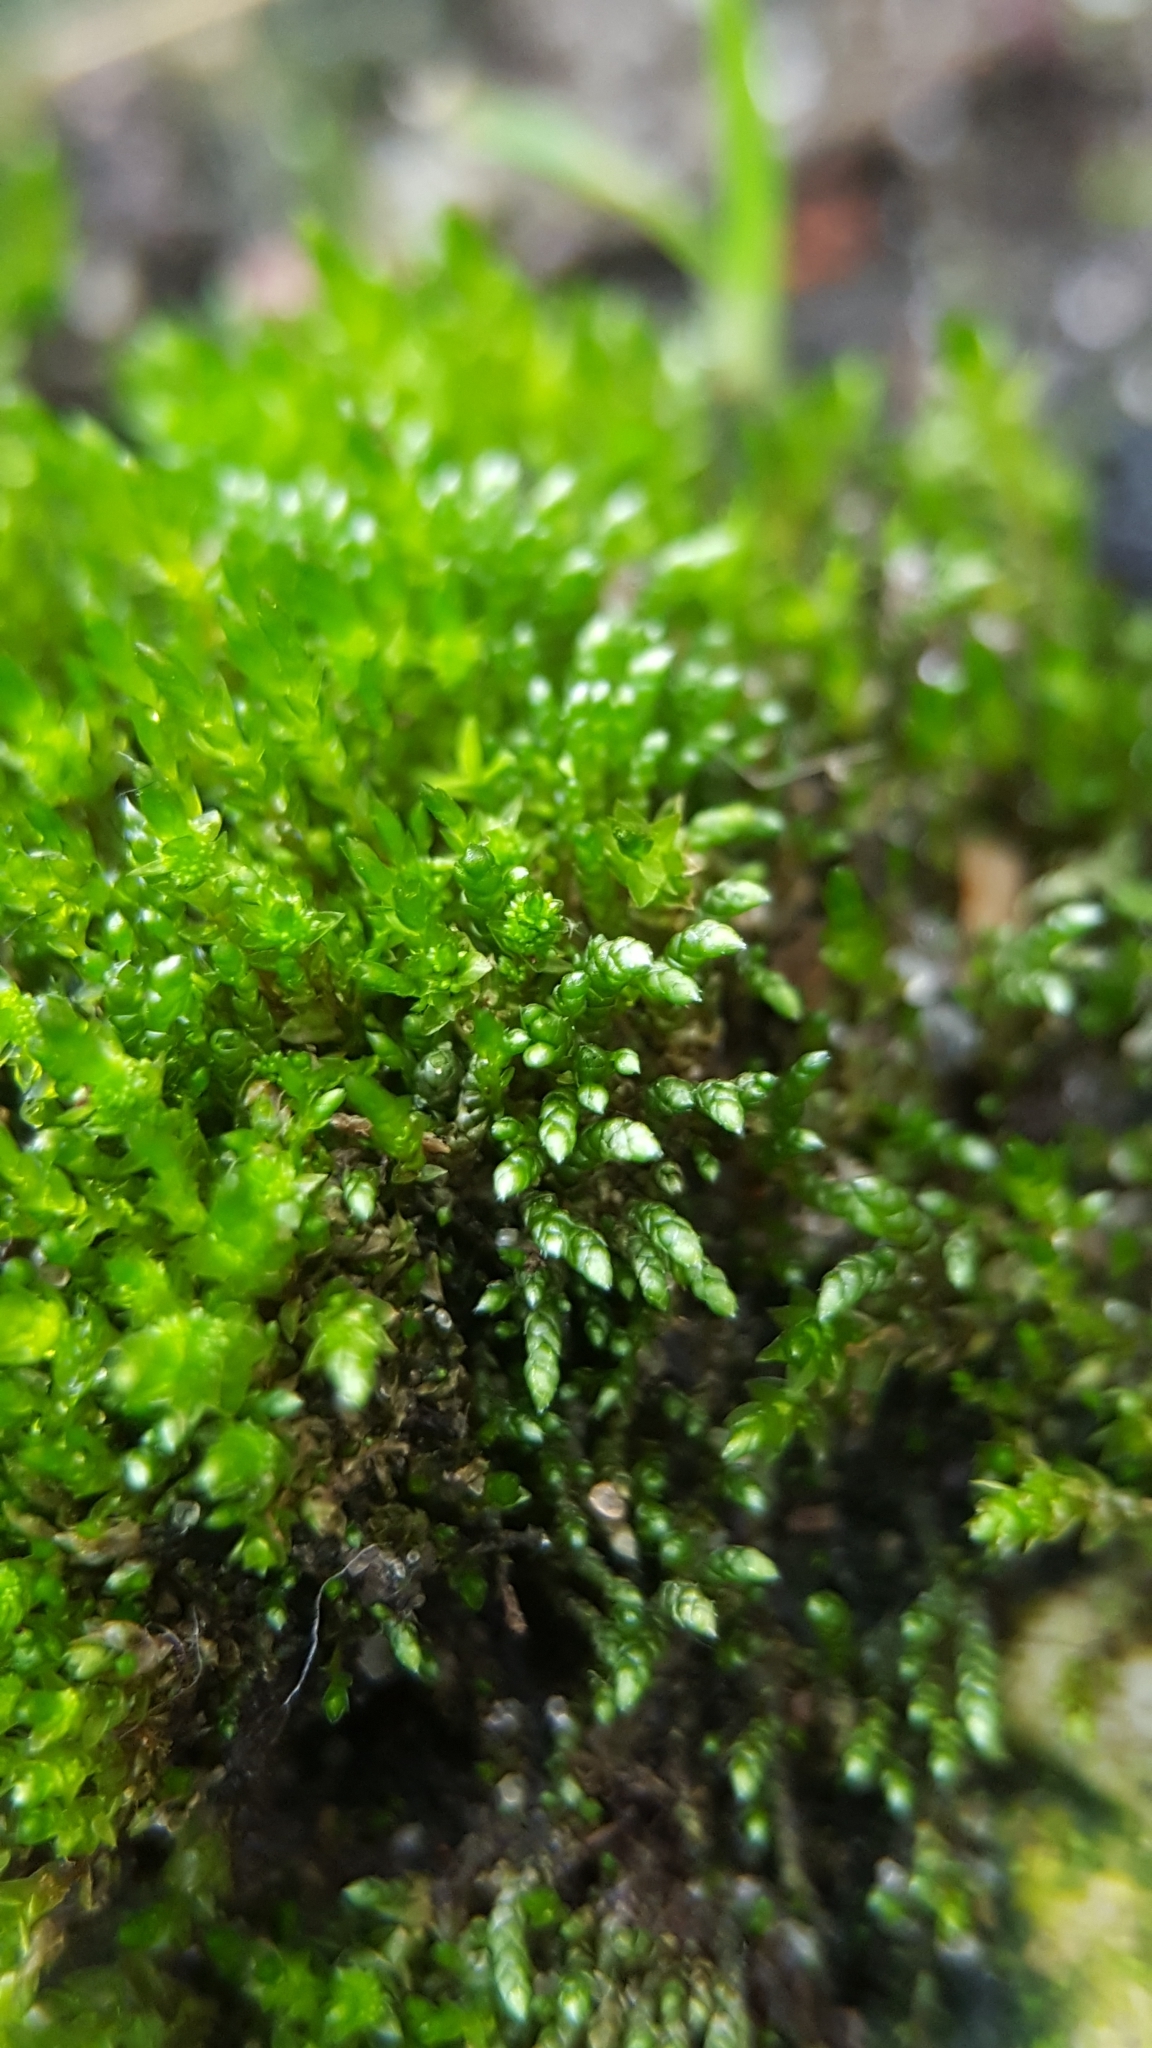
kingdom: Plantae
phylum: Bryophyta
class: Bryopsida
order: Bryales
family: Bryaceae
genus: Bryum
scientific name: Bryum argenteum
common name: Silver-moss
